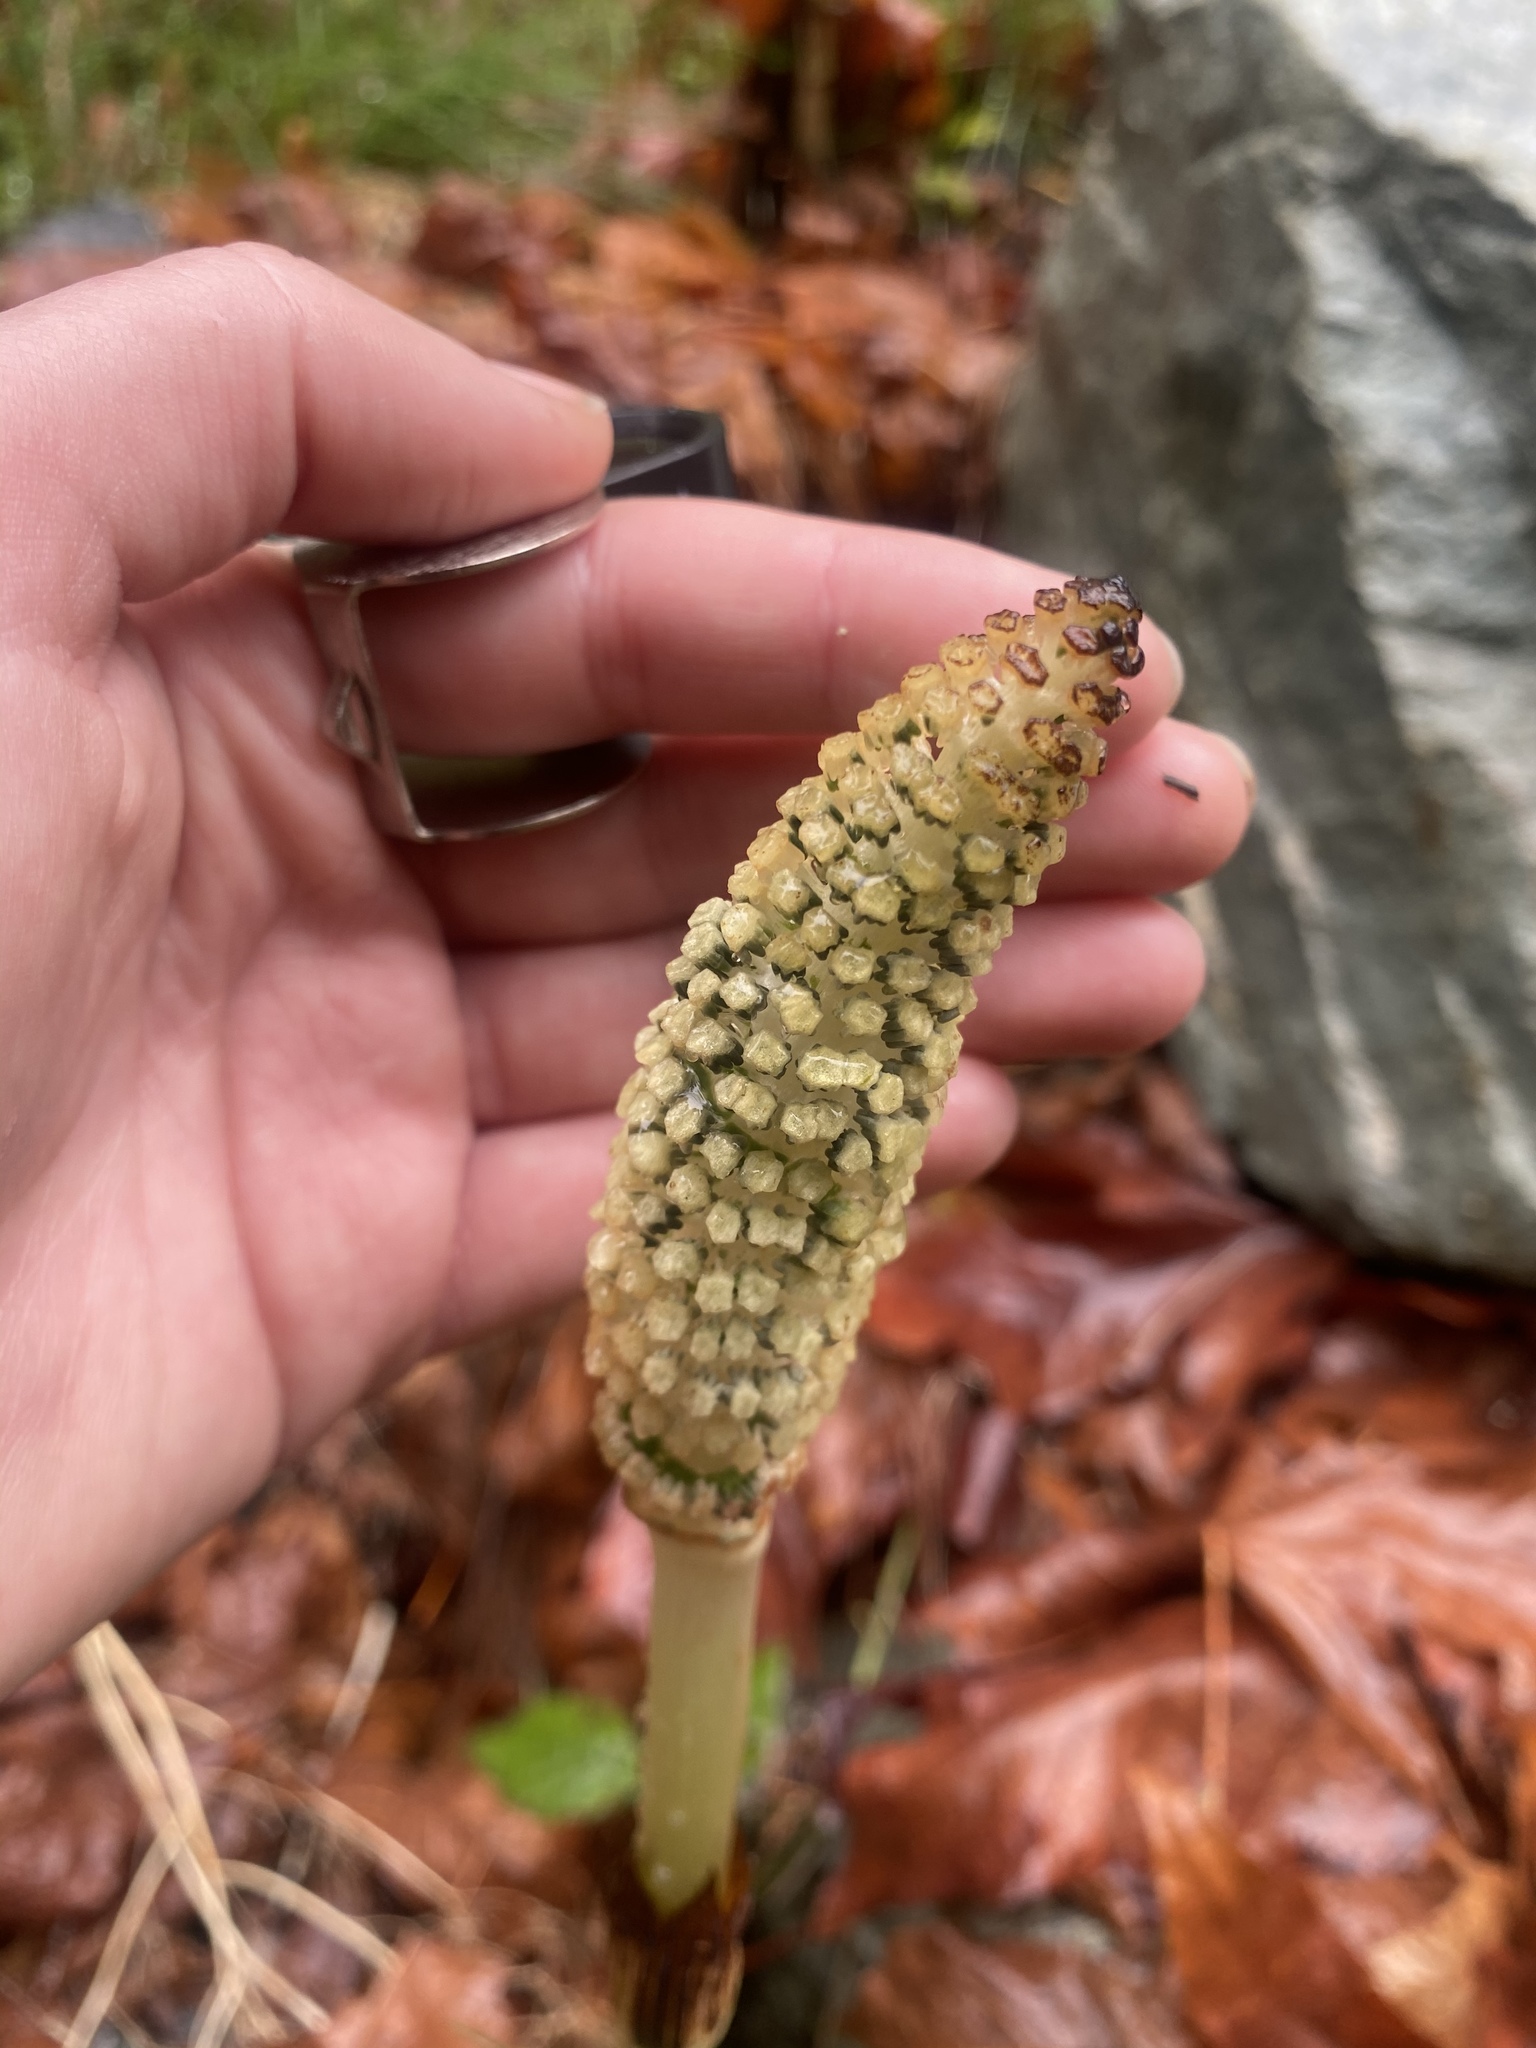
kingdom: Plantae
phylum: Tracheophyta
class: Polypodiopsida
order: Equisetales
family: Equisetaceae
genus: Equisetum
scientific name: Equisetum telmateia
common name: Great horsetail
